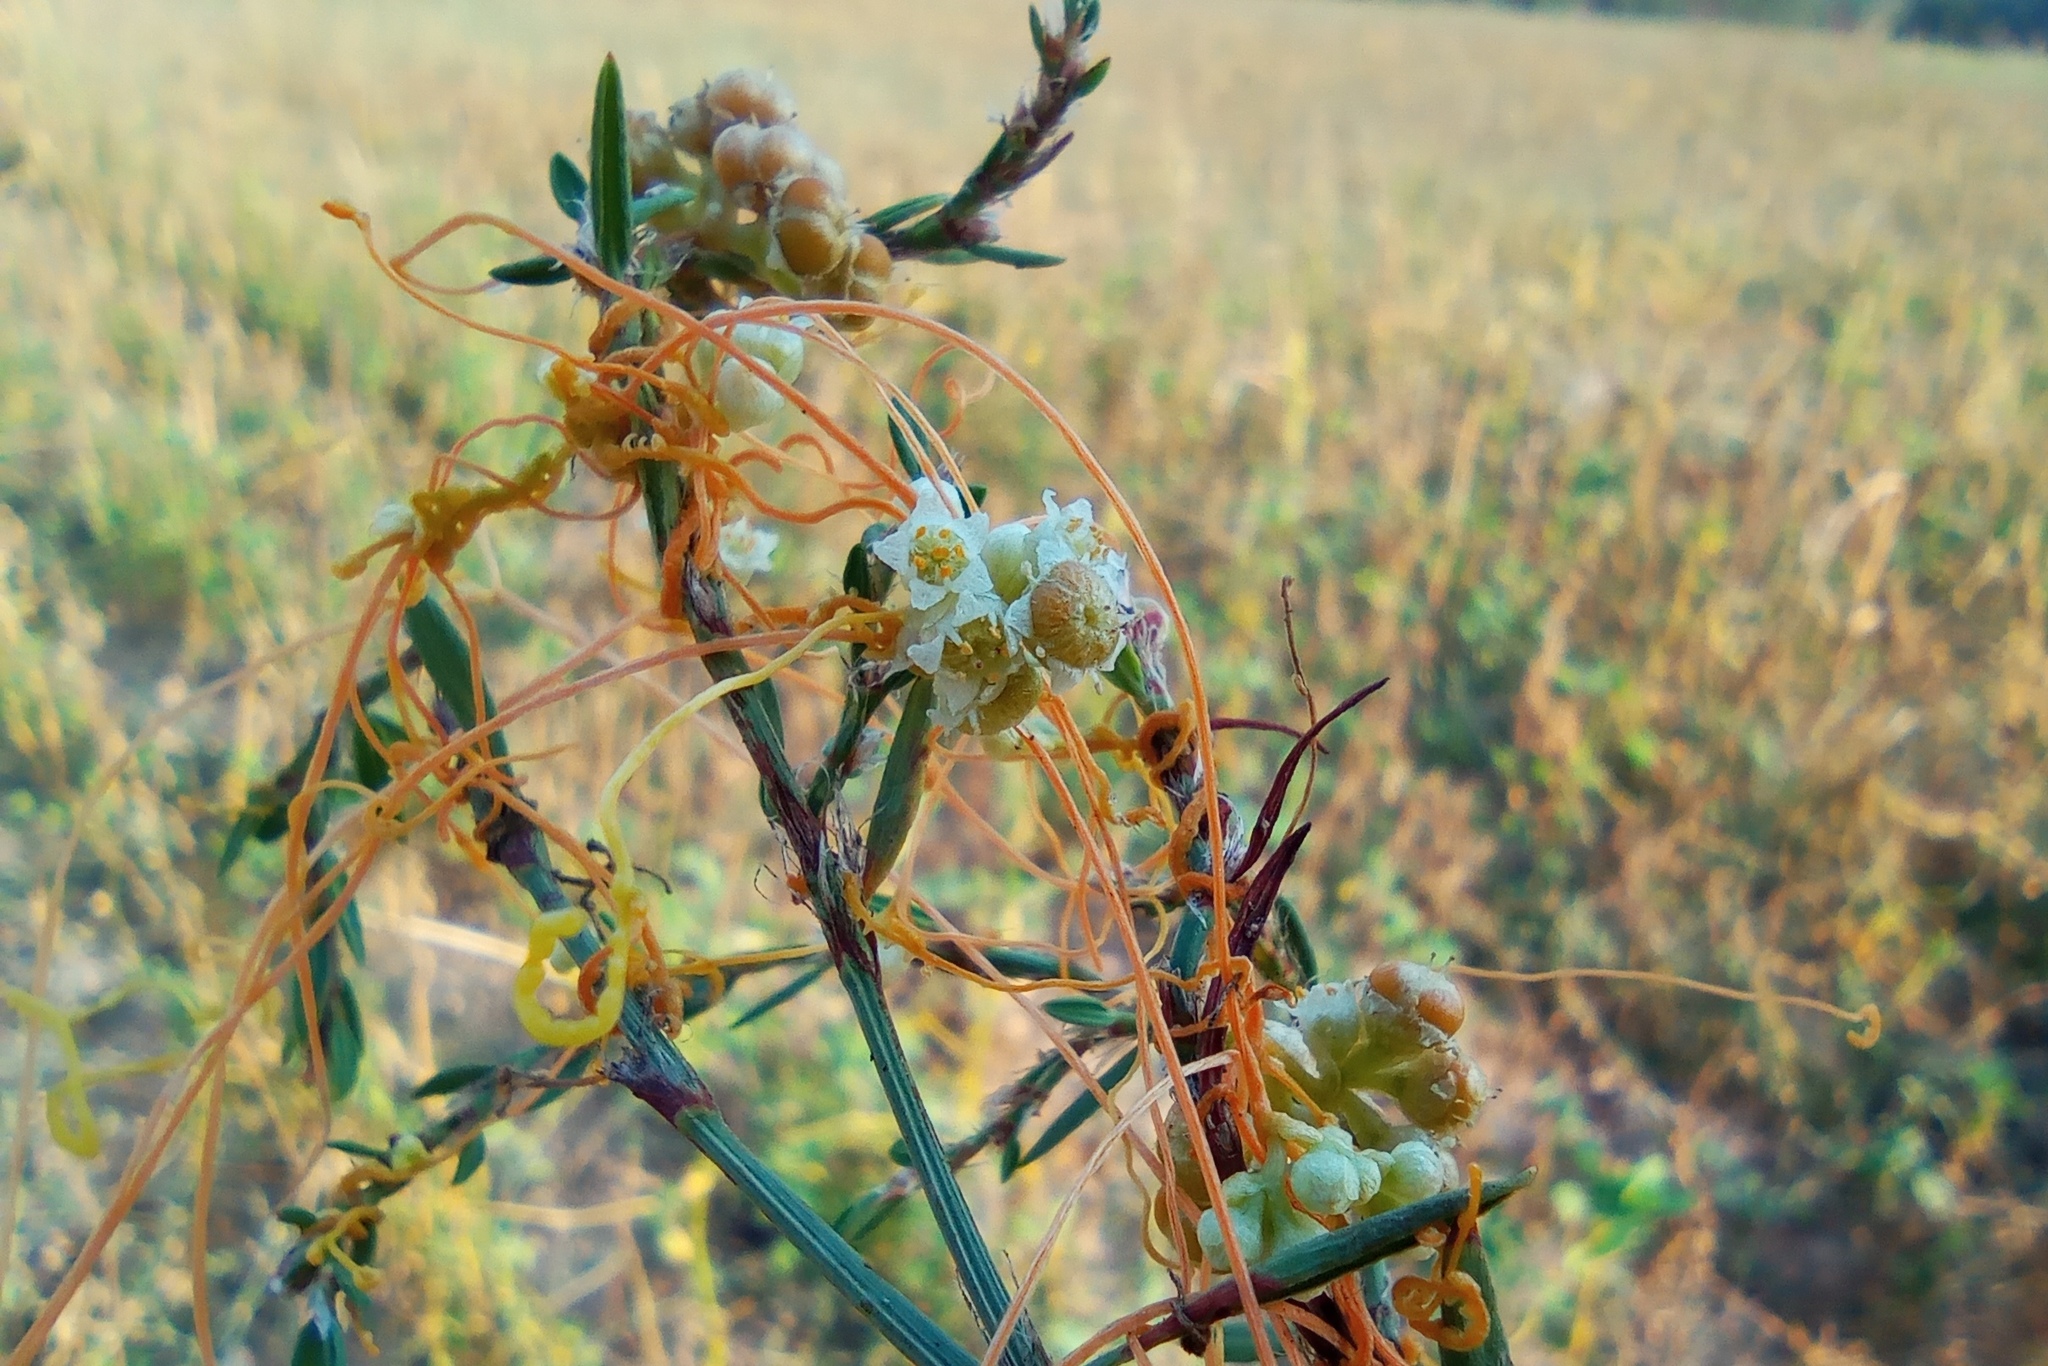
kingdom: Plantae
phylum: Tracheophyta
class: Magnoliopsida
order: Solanales
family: Convolvulaceae
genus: Cuscuta
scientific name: Cuscuta campestris
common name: Yellow dodder
